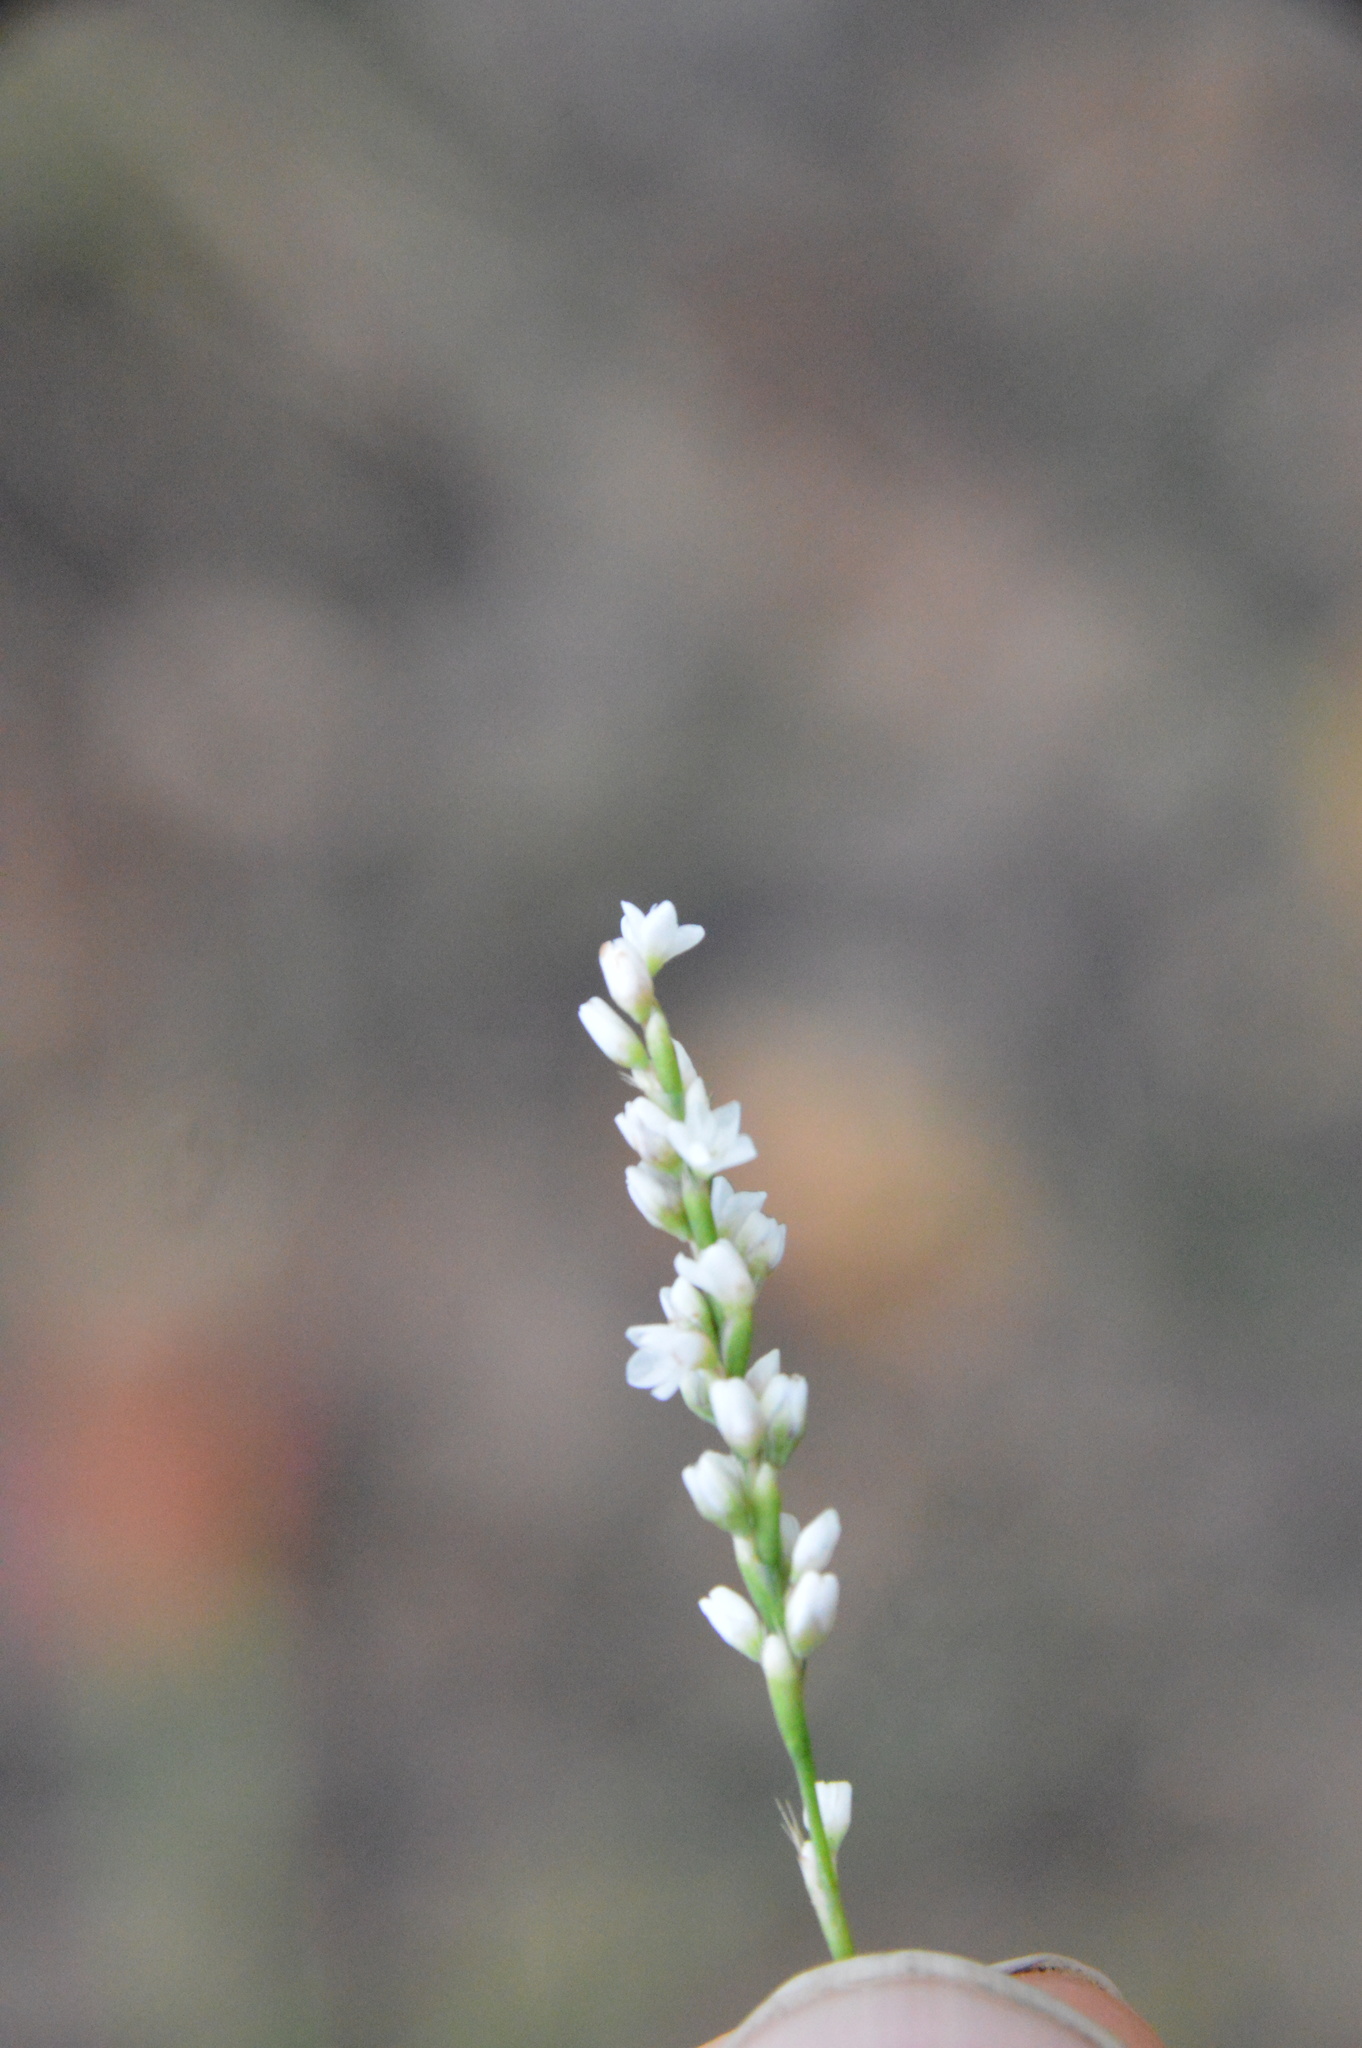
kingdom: Plantae
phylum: Tracheophyta
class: Magnoliopsida
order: Caryophyllales
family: Polygonaceae
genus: Persicaria
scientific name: Persicaria hydropiperoides
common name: Swamp smartweed
